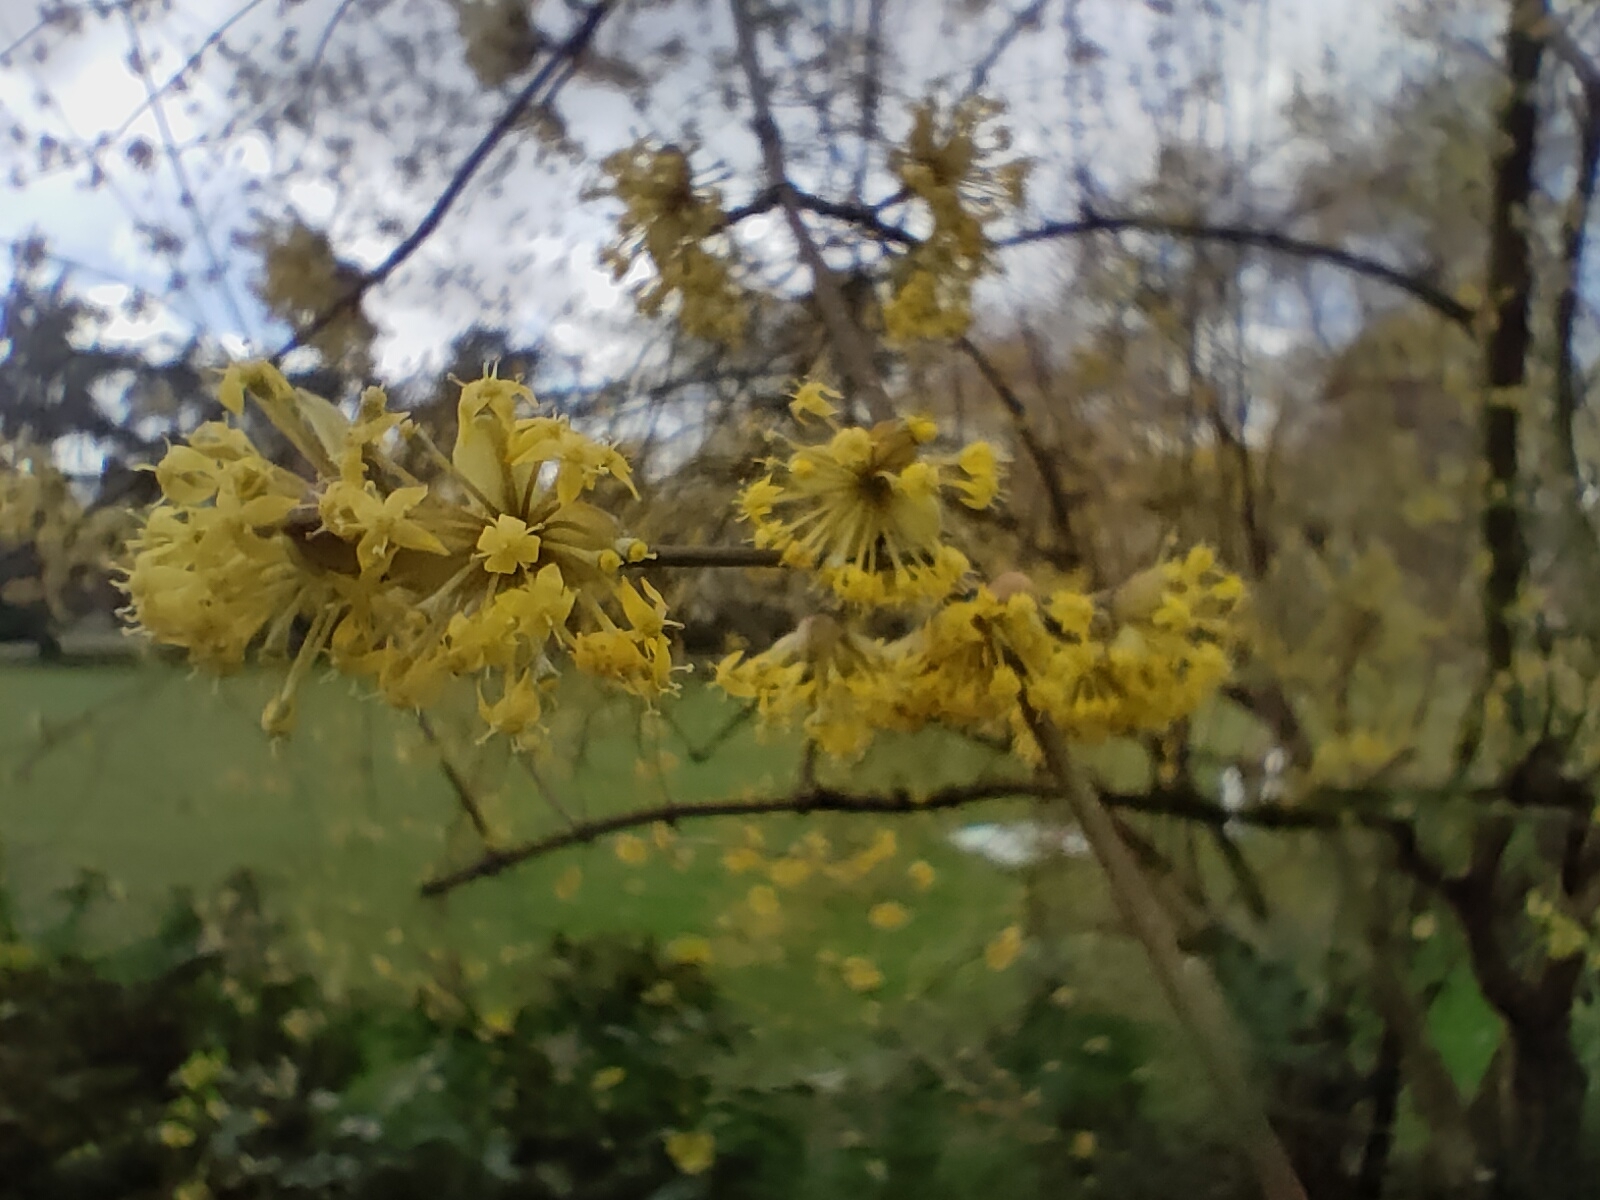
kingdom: Plantae
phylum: Tracheophyta
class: Magnoliopsida
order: Cornales
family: Cornaceae
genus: Cornus
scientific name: Cornus mas
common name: Cornelian-cherry
